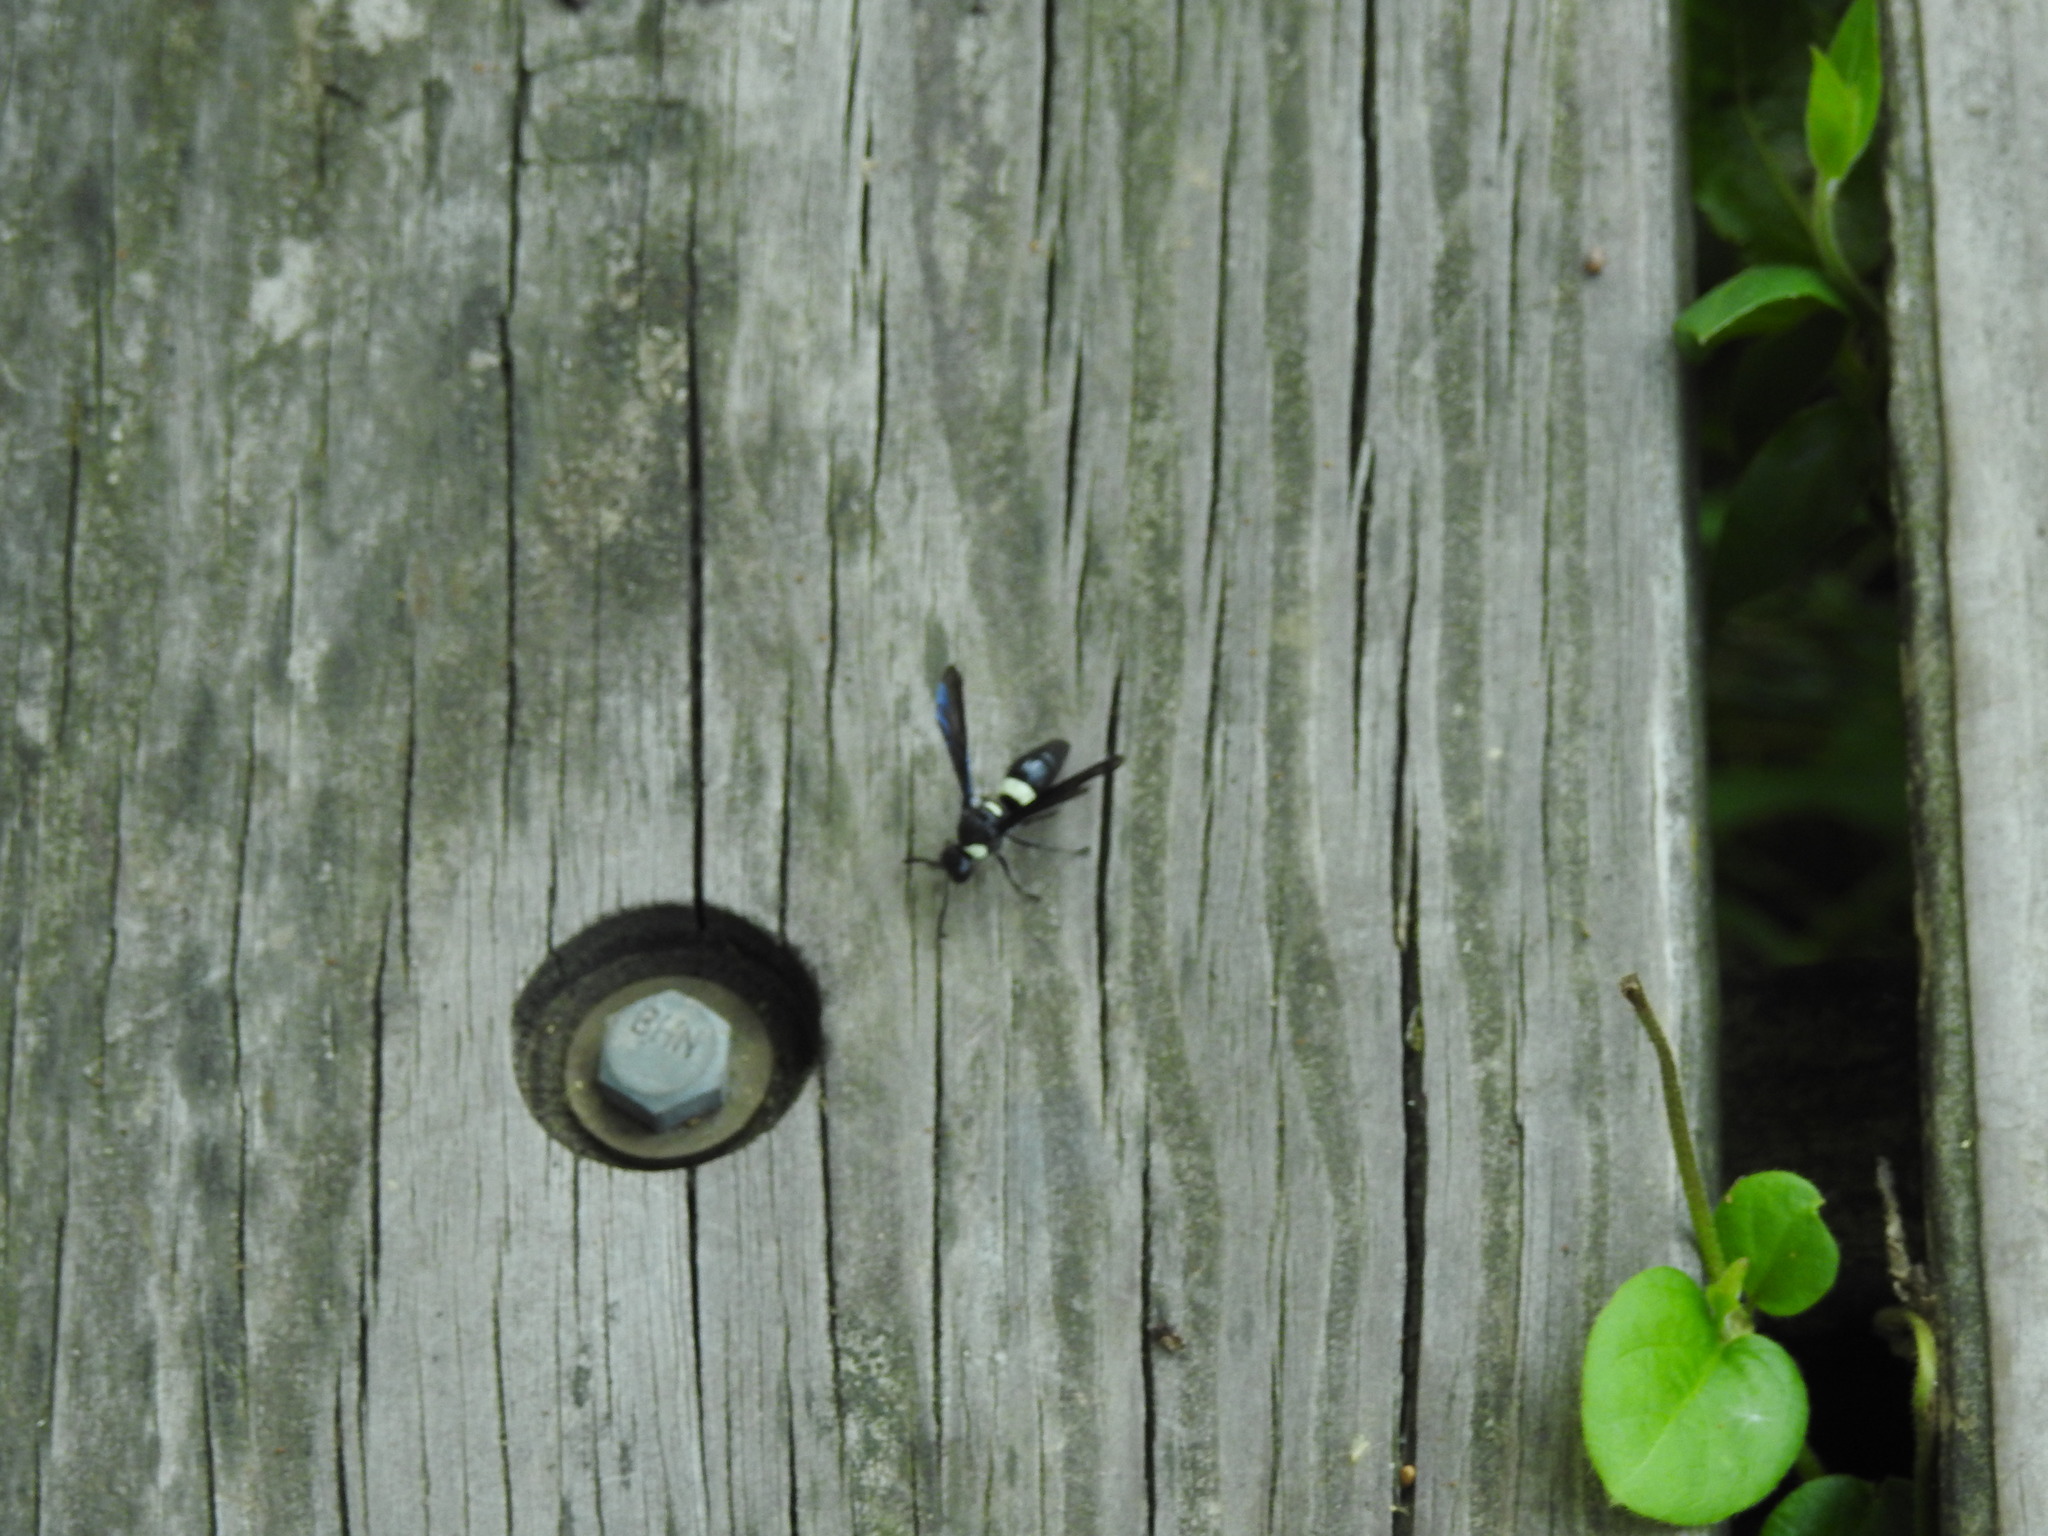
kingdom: Animalia
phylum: Arthropoda
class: Insecta
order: Hymenoptera
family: Eumenidae
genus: Monobia
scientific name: Monobia quadridens
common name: Four-toothed mason wasp
